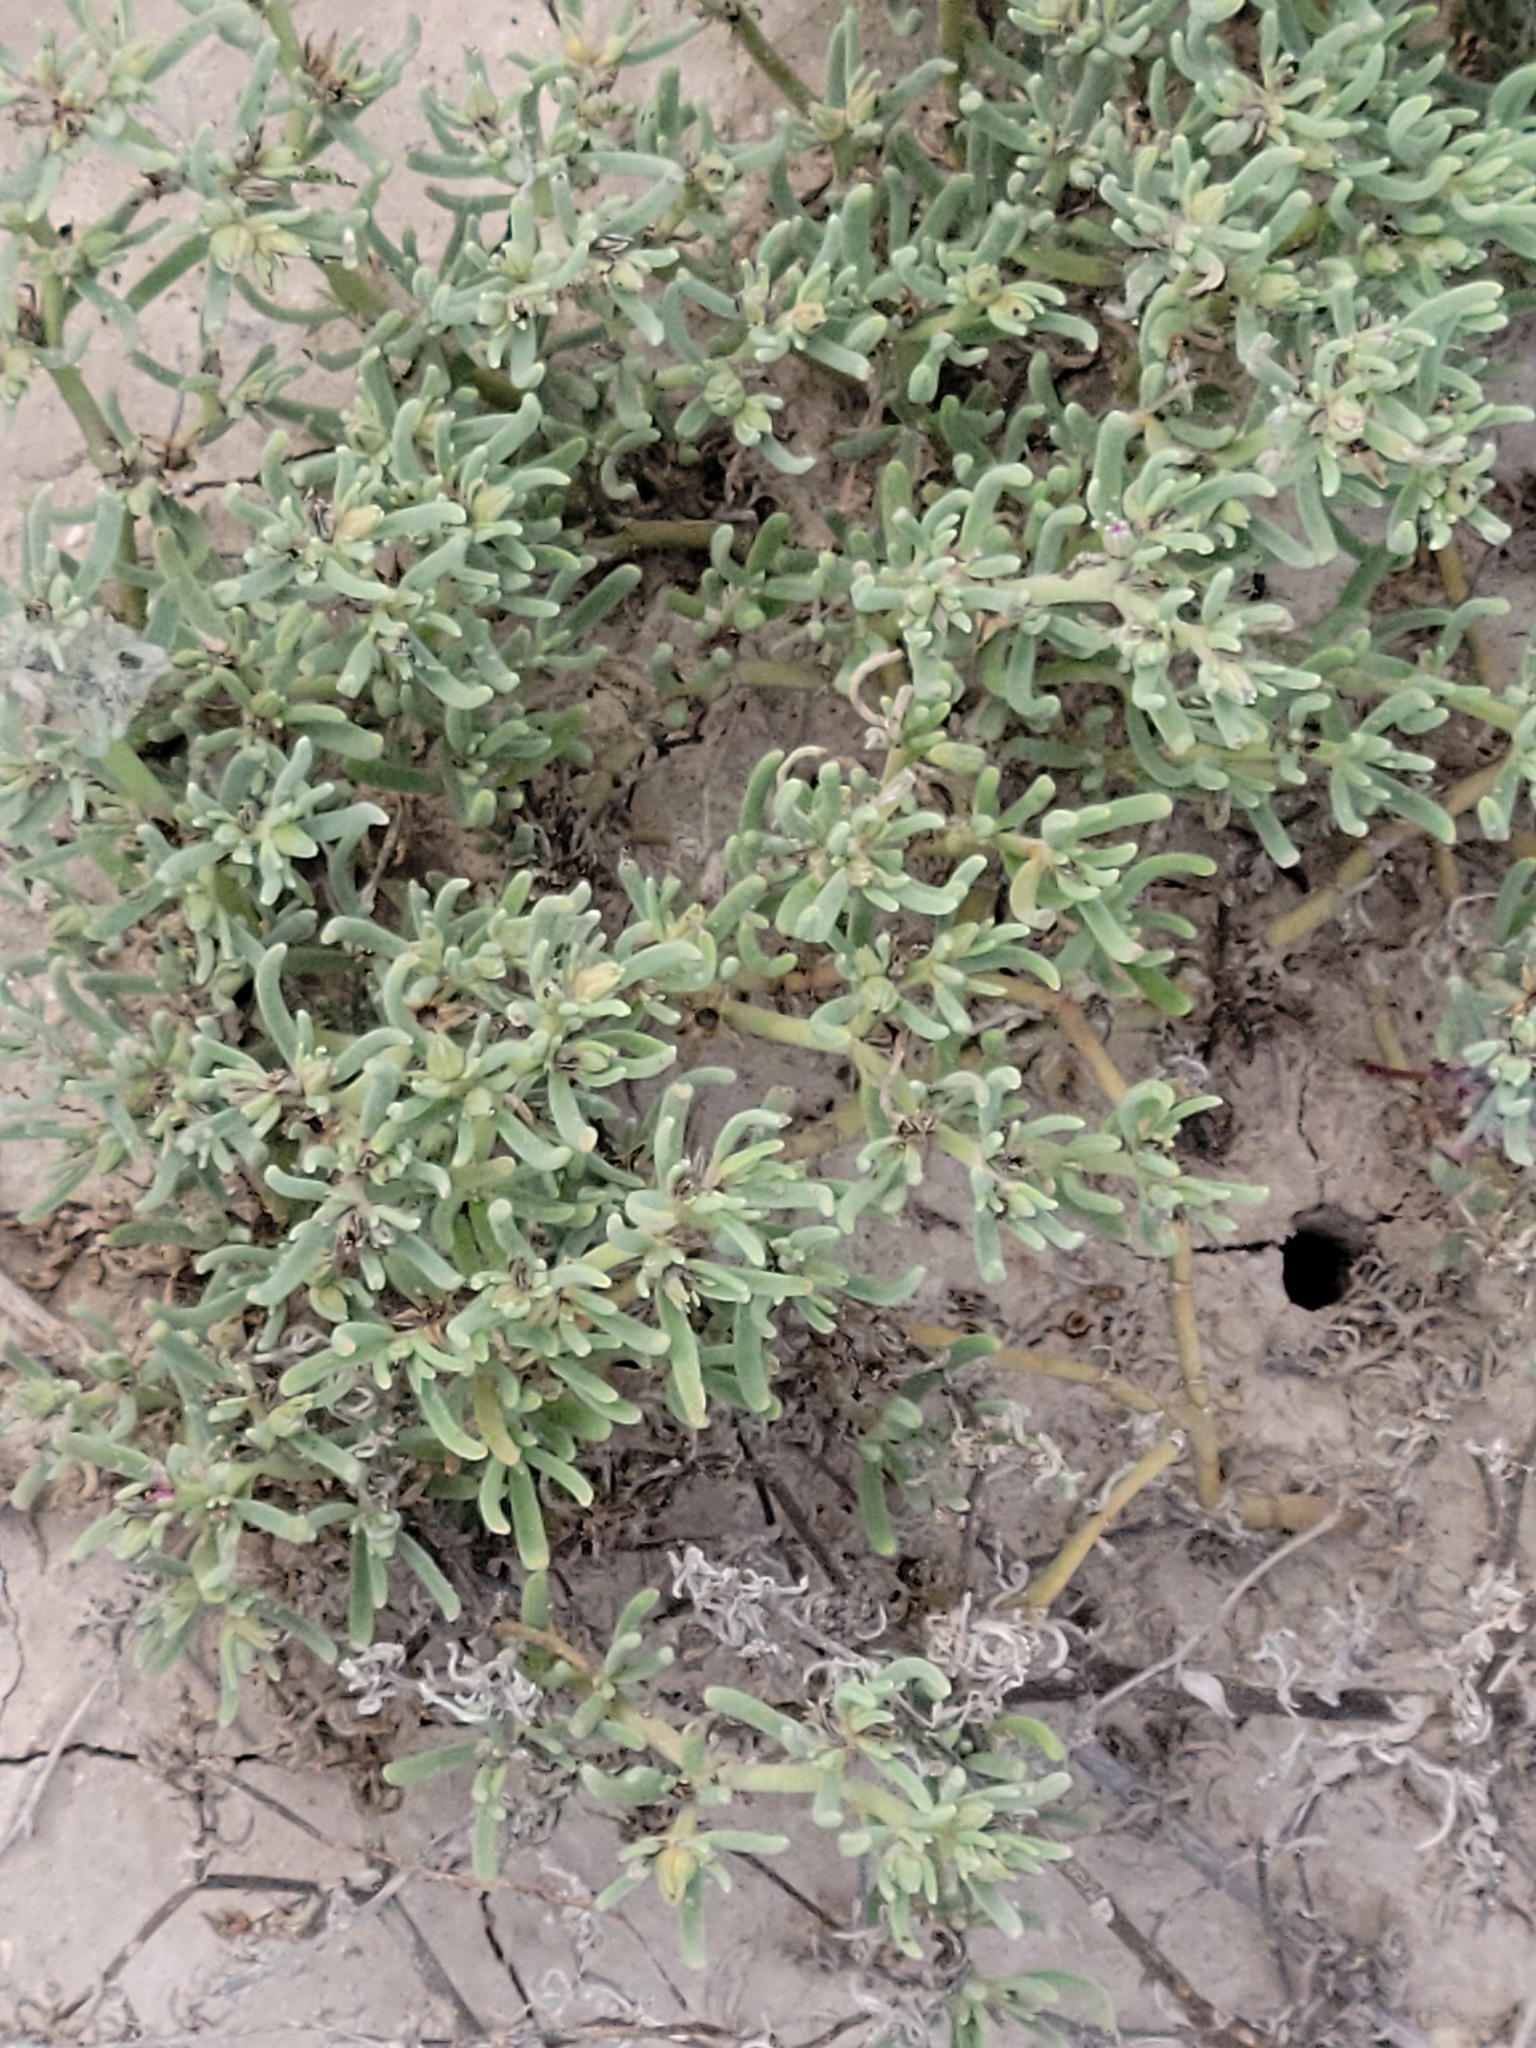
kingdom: Plantae
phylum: Tracheophyta
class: Magnoliopsida
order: Caryophyllales
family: Aizoaceae
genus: Sesuvium
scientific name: Sesuvium revolutifolium
